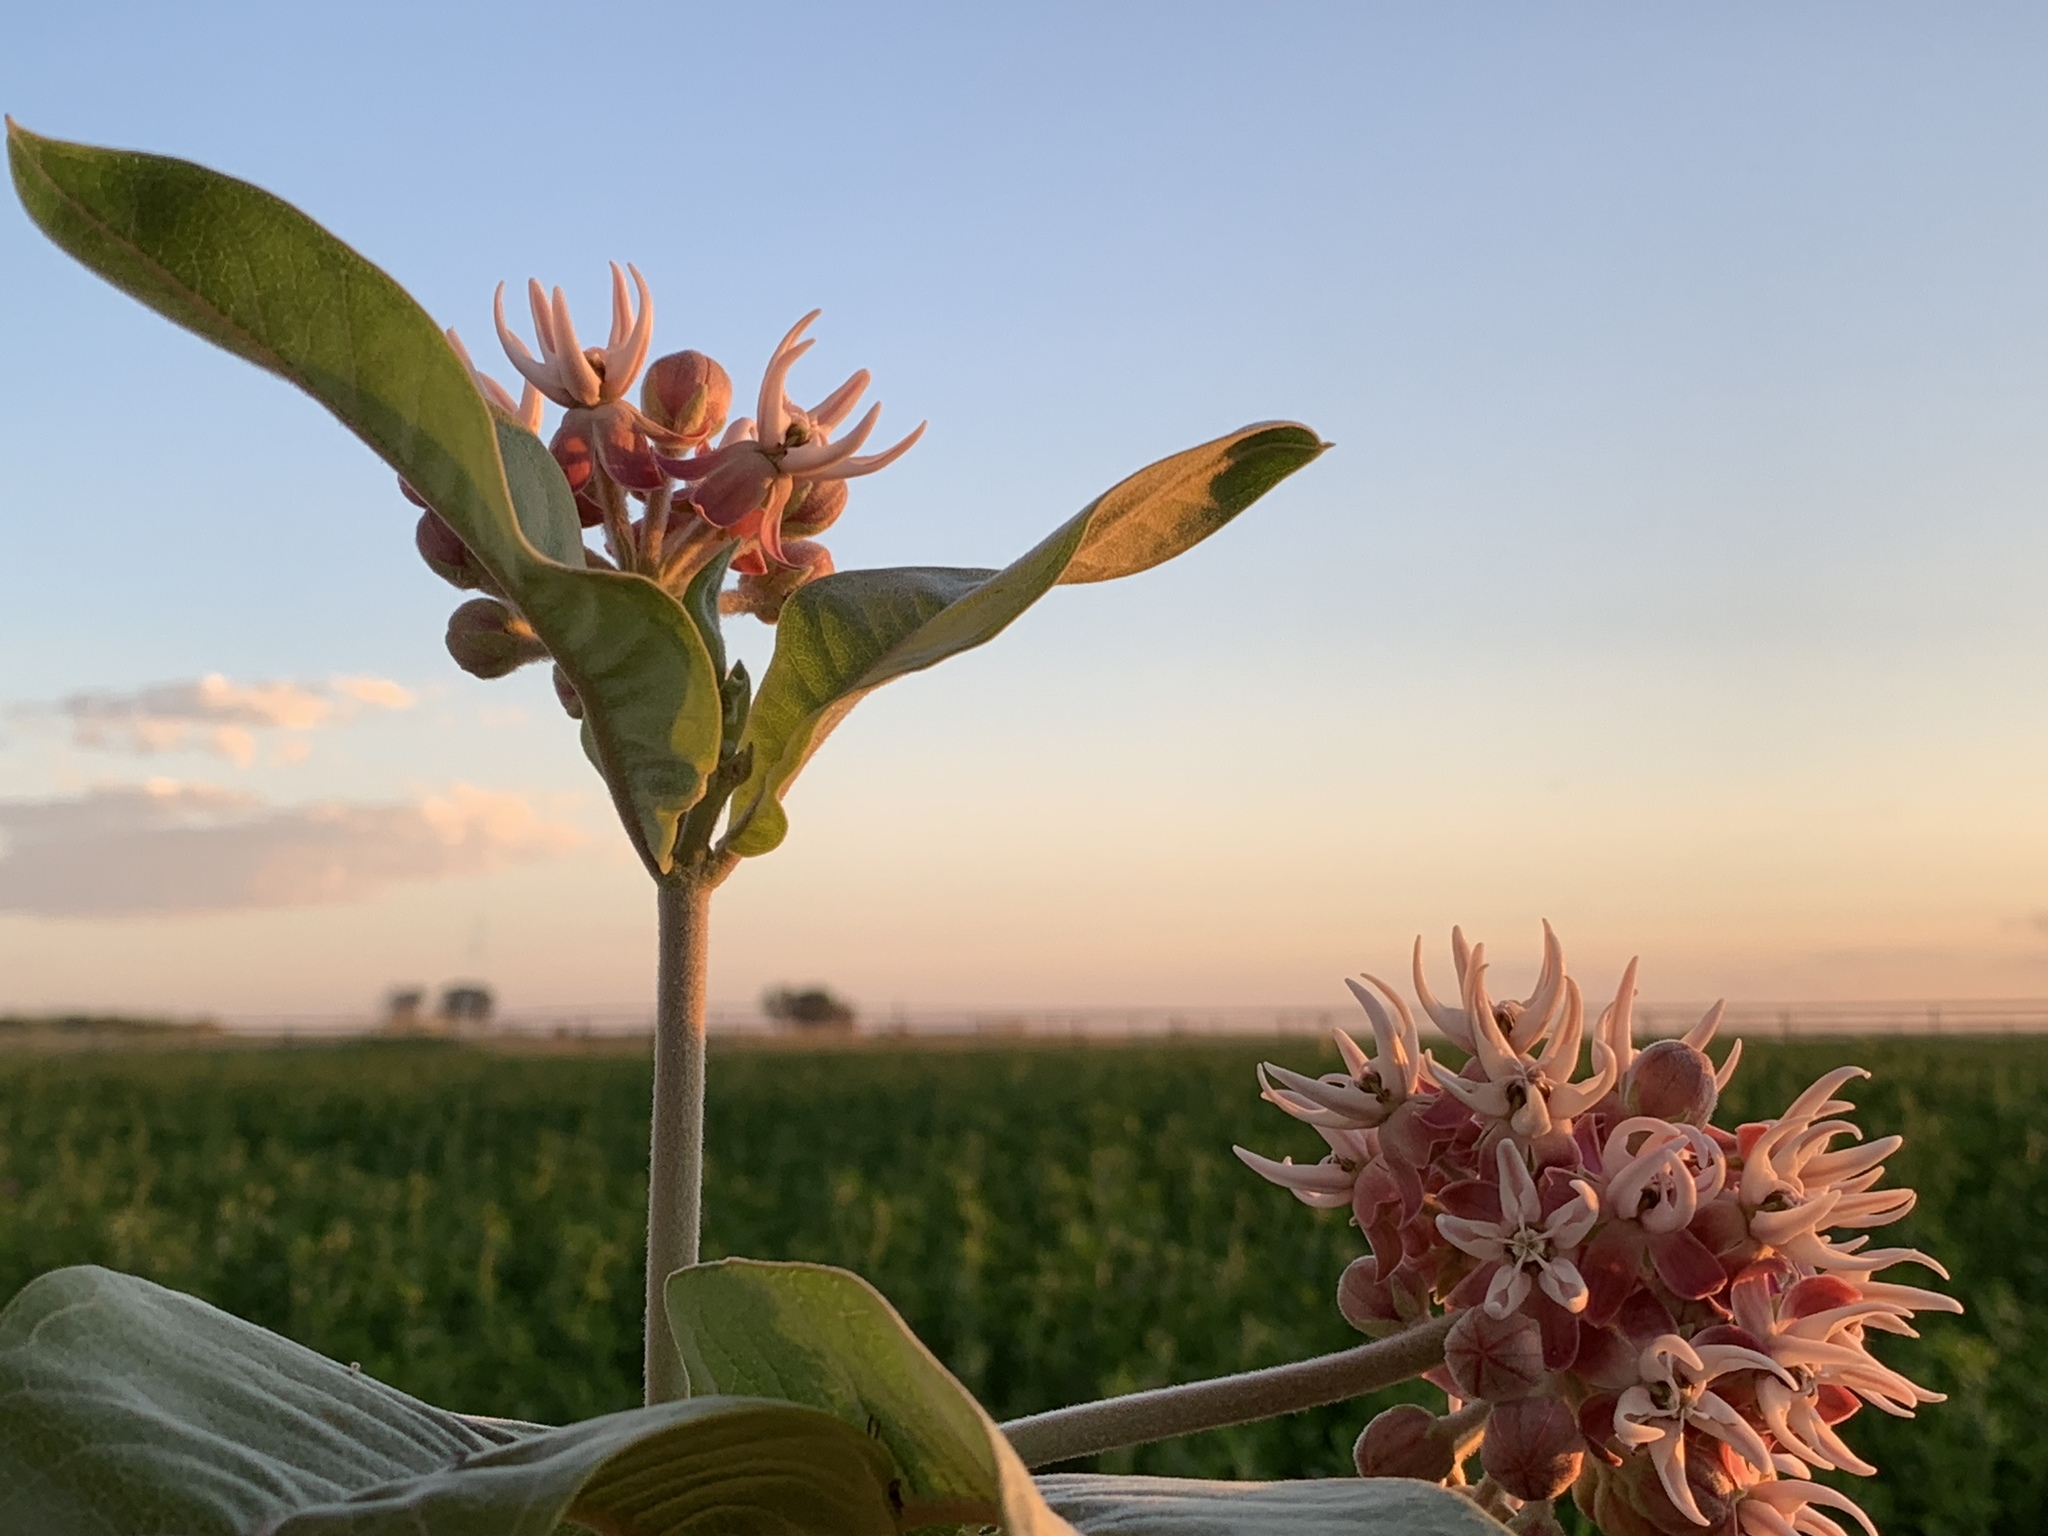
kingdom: Plantae
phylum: Tracheophyta
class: Magnoliopsida
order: Gentianales
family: Apocynaceae
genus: Asclepias
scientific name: Asclepias speciosa
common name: Showy milkweed
